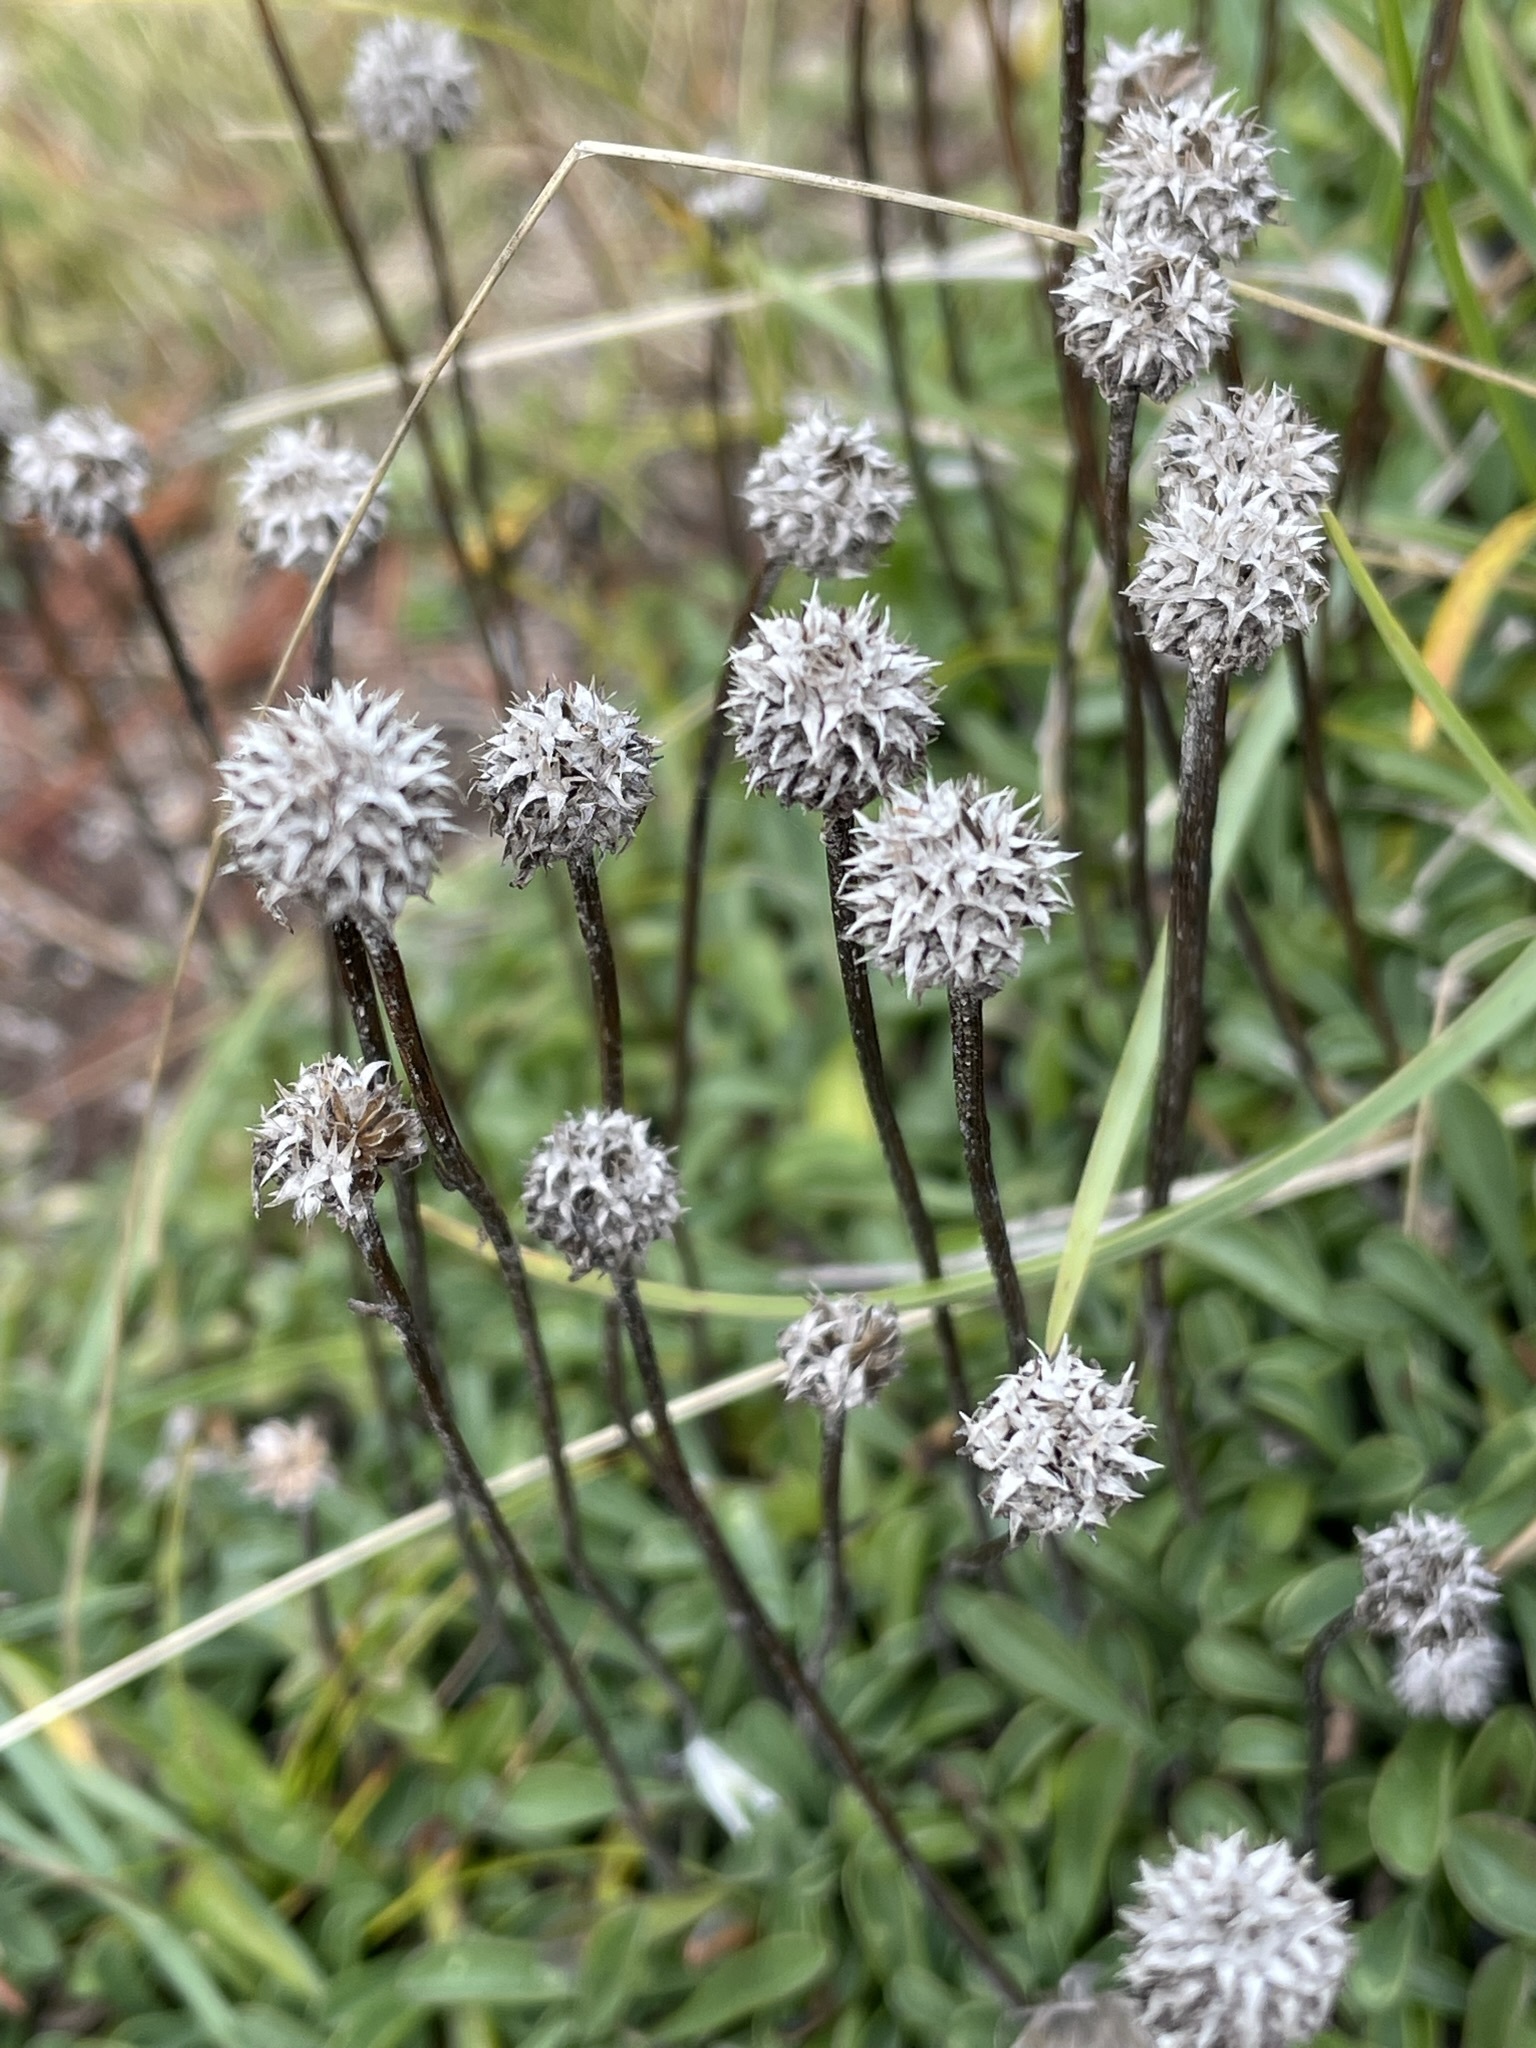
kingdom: Plantae
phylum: Tracheophyta
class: Magnoliopsida
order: Lamiales
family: Plantaginaceae
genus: Globularia
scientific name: Globularia cordifolia
